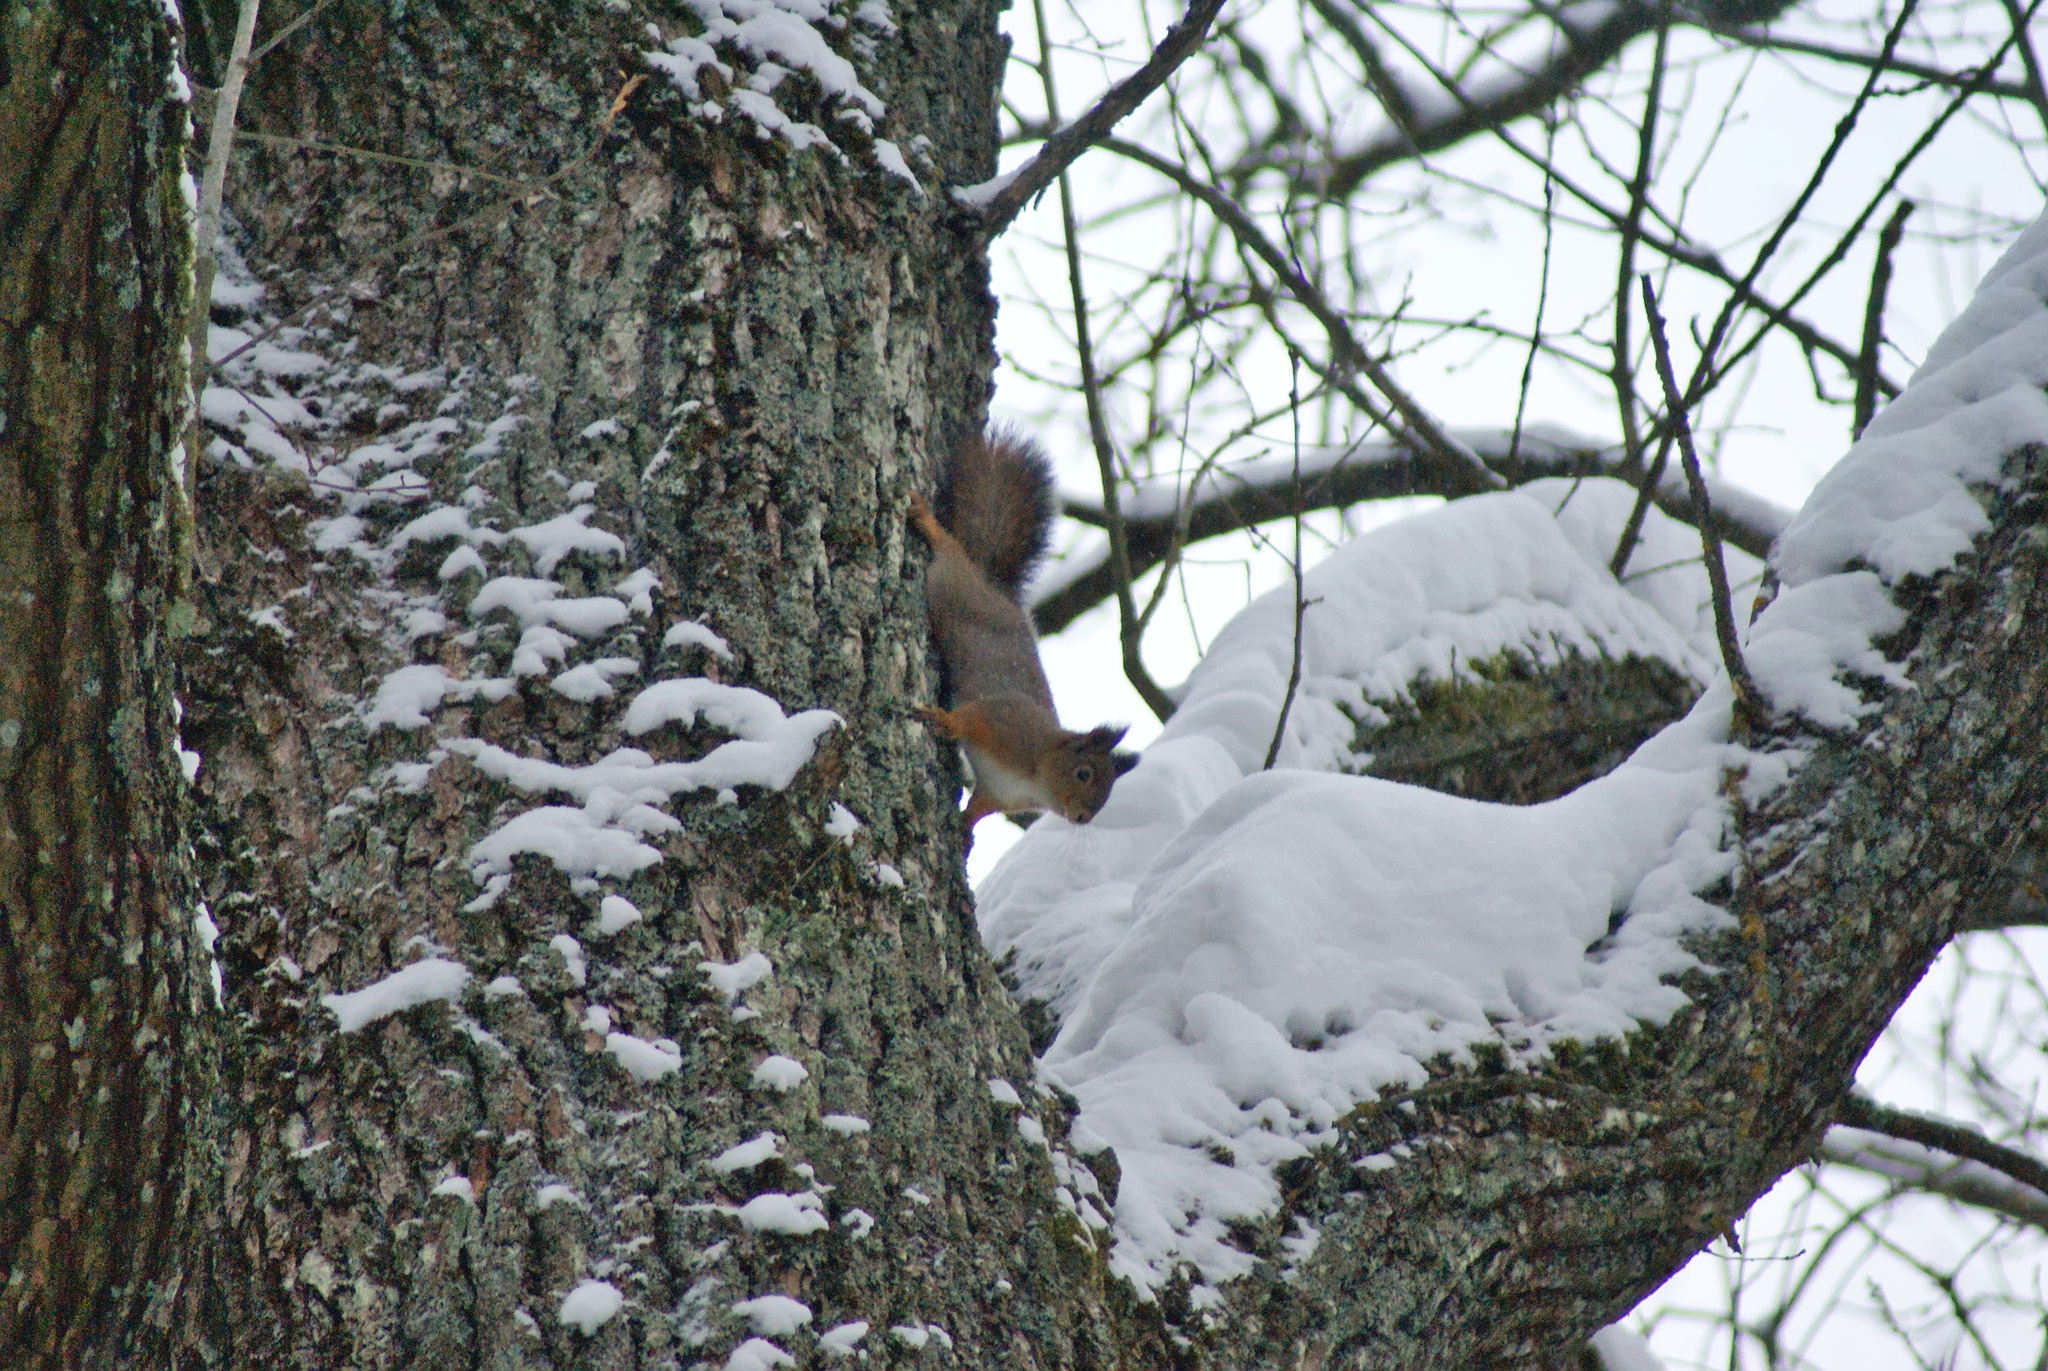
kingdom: Animalia
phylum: Chordata
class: Mammalia
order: Rodentia
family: Sciuridae
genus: Sciurus
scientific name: Sciurus vulgaris
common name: Eurasian red squirrel
